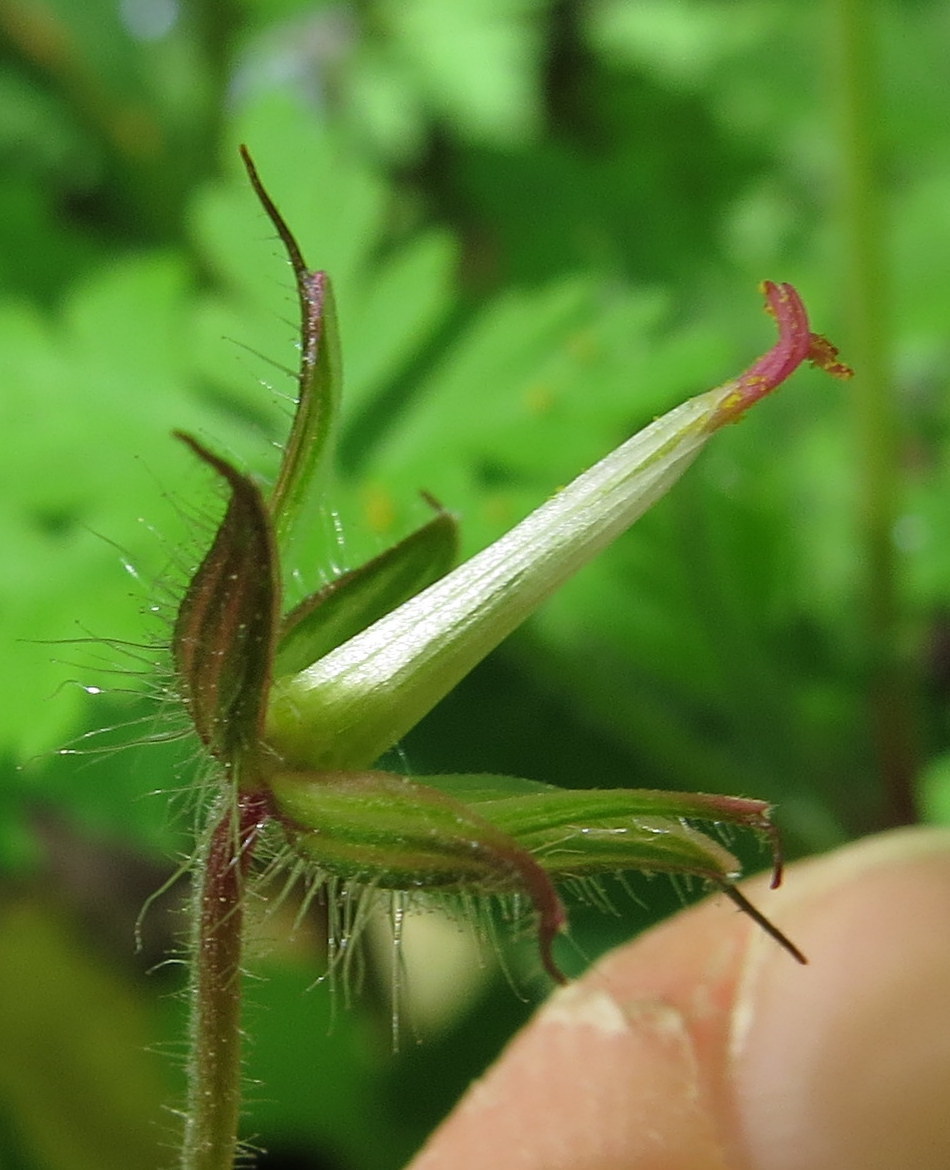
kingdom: Plantae
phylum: Tracheophyta
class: Magnoliopsida
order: Geraniales
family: Geraniaceae
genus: Geranium
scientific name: Geranium robertianum
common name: Herb-robert
